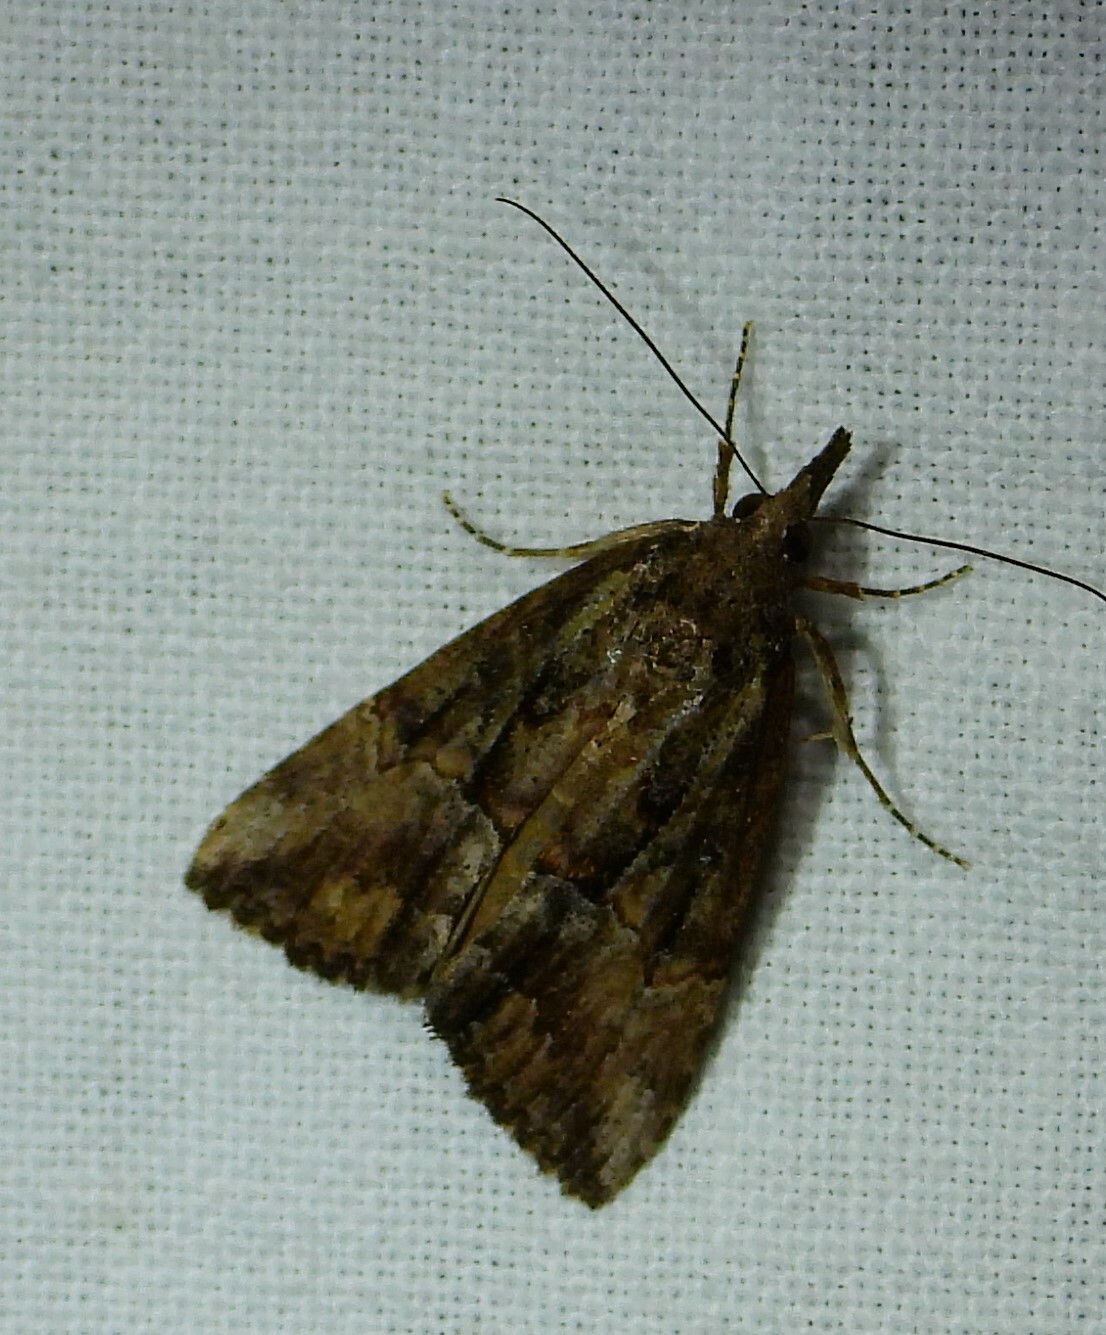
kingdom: Animalia
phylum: Arthropoda
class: Insecta
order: Lepidoptera
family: Erebidae
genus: Hypena
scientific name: Hypena scabra
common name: Green cloverworm
